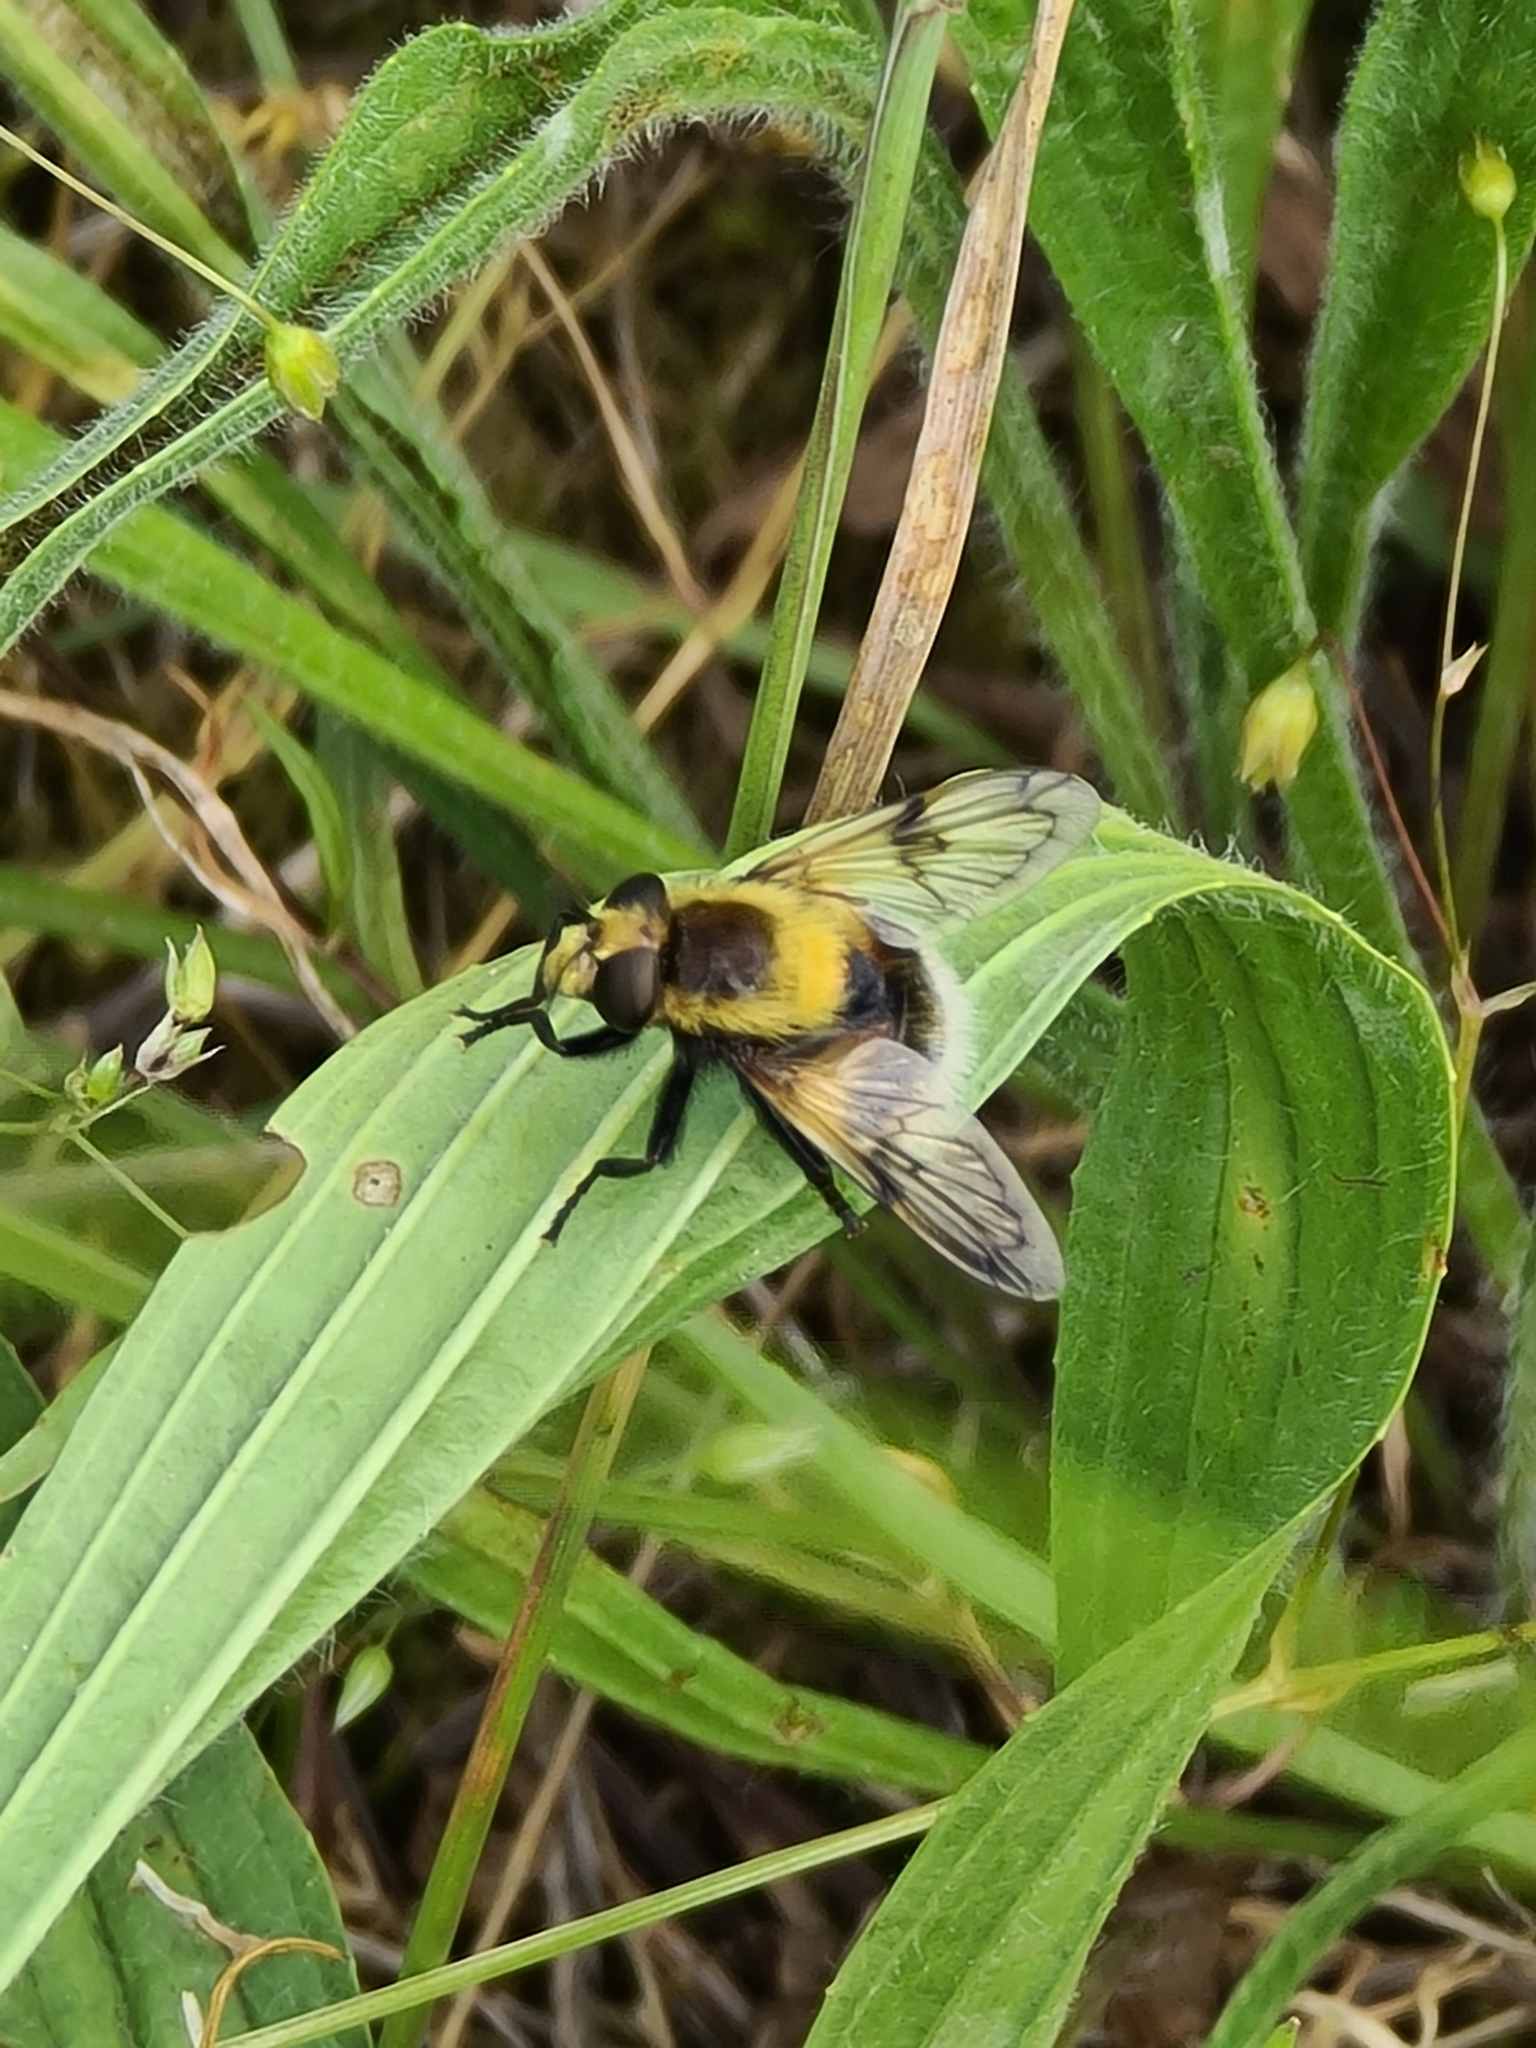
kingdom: Animalia
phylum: Arthropoda
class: Insecta
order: Diptera
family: Syrphidae
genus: Volucella
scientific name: Volucella bombylans
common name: Bumble bee hover fly
